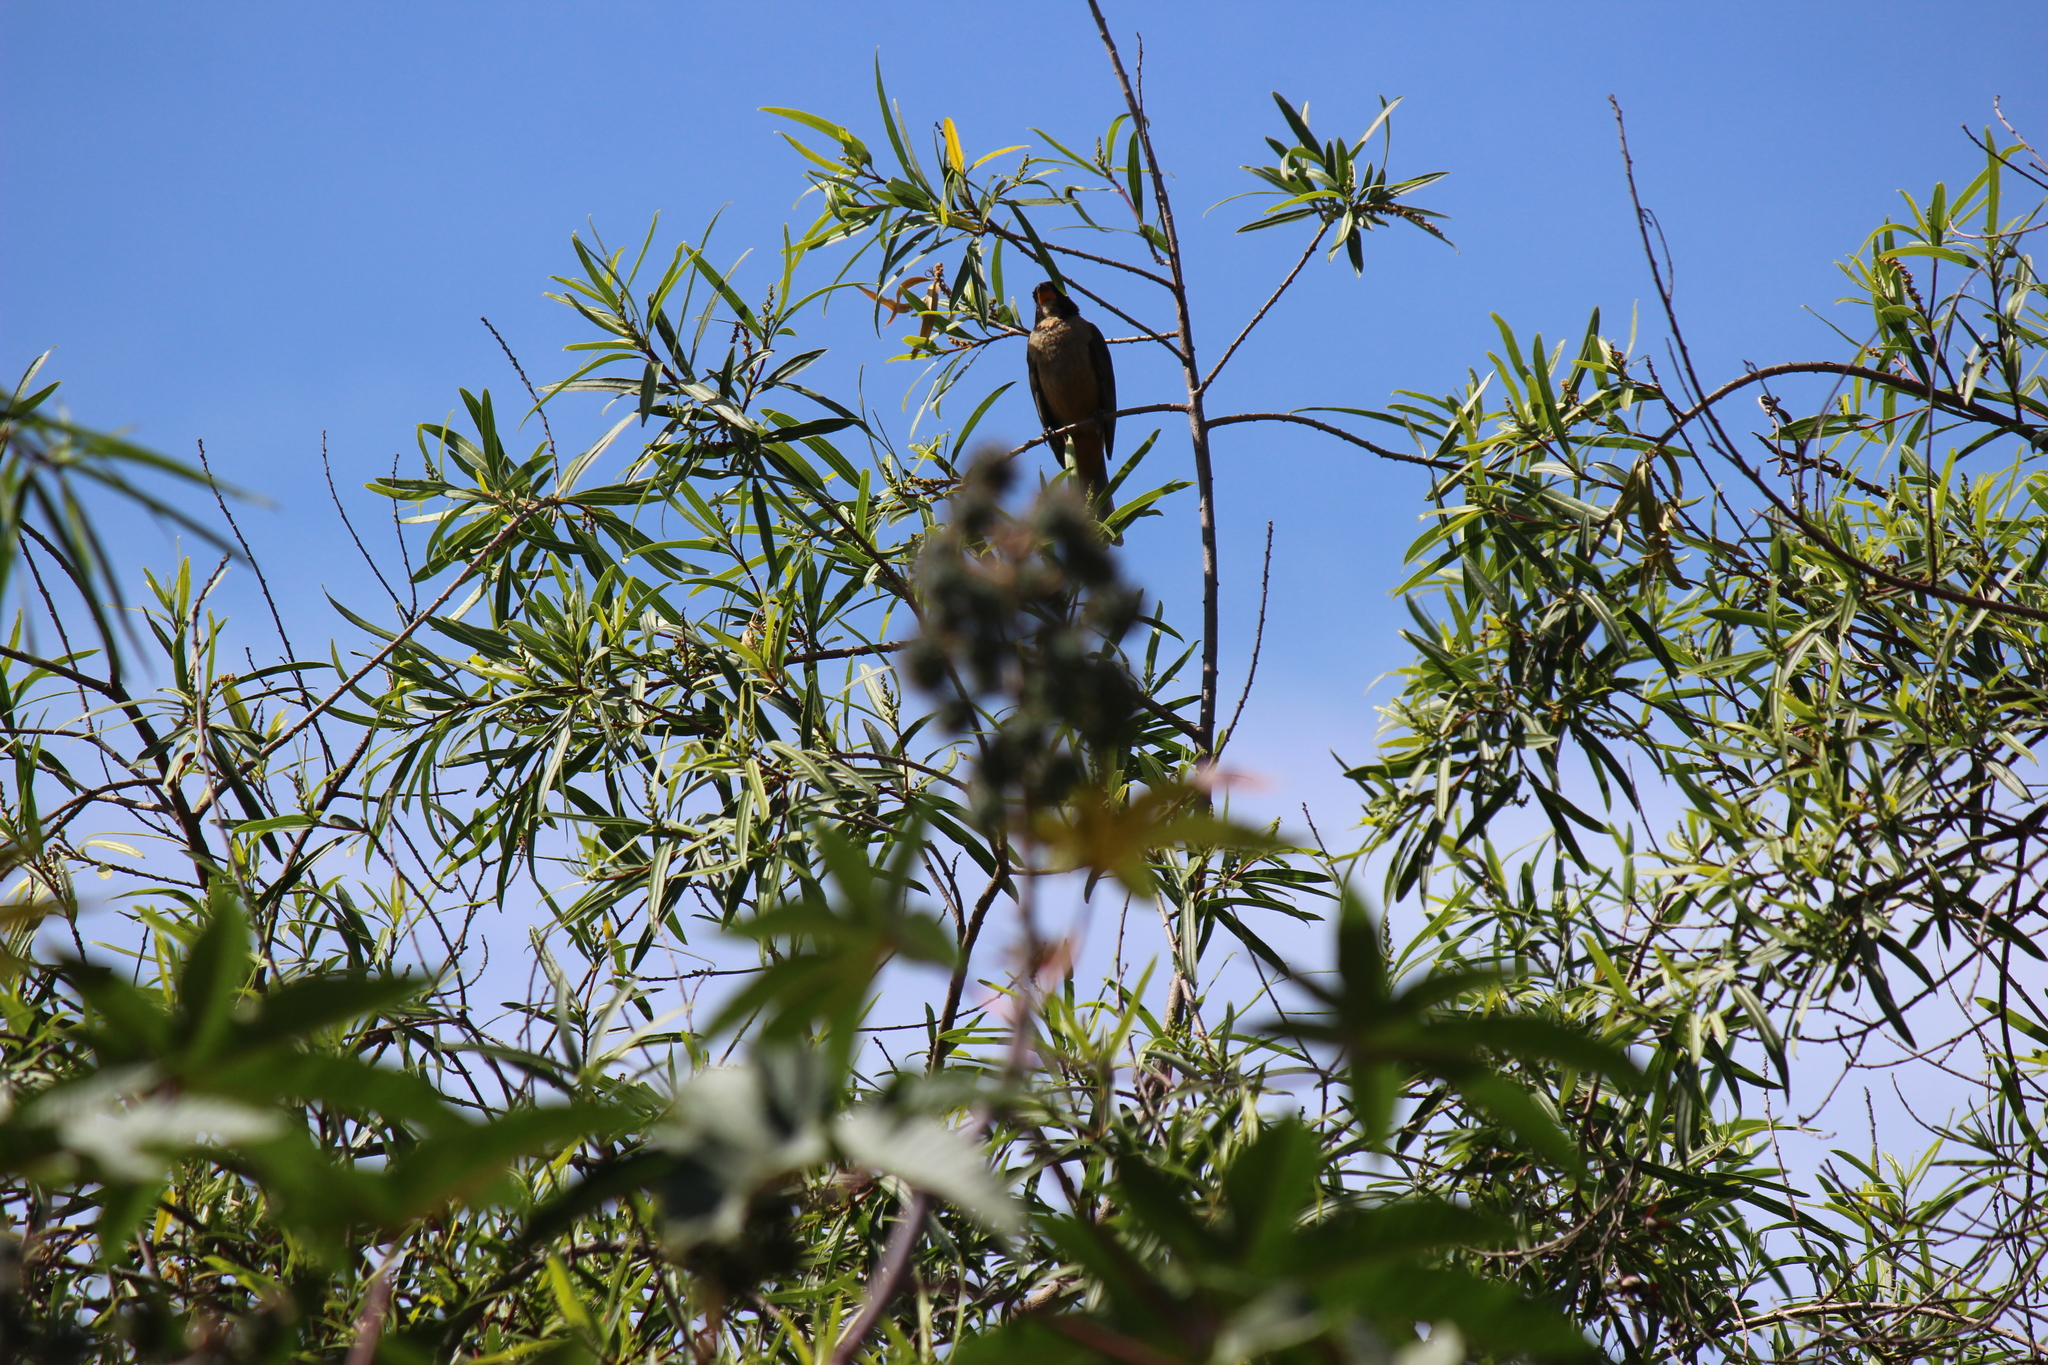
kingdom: Animalia
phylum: Chordata
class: Aves
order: Passeriformes
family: Thraupidae
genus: Saltator
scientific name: Saltator aurantiirostris
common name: Golden-billed saltator
